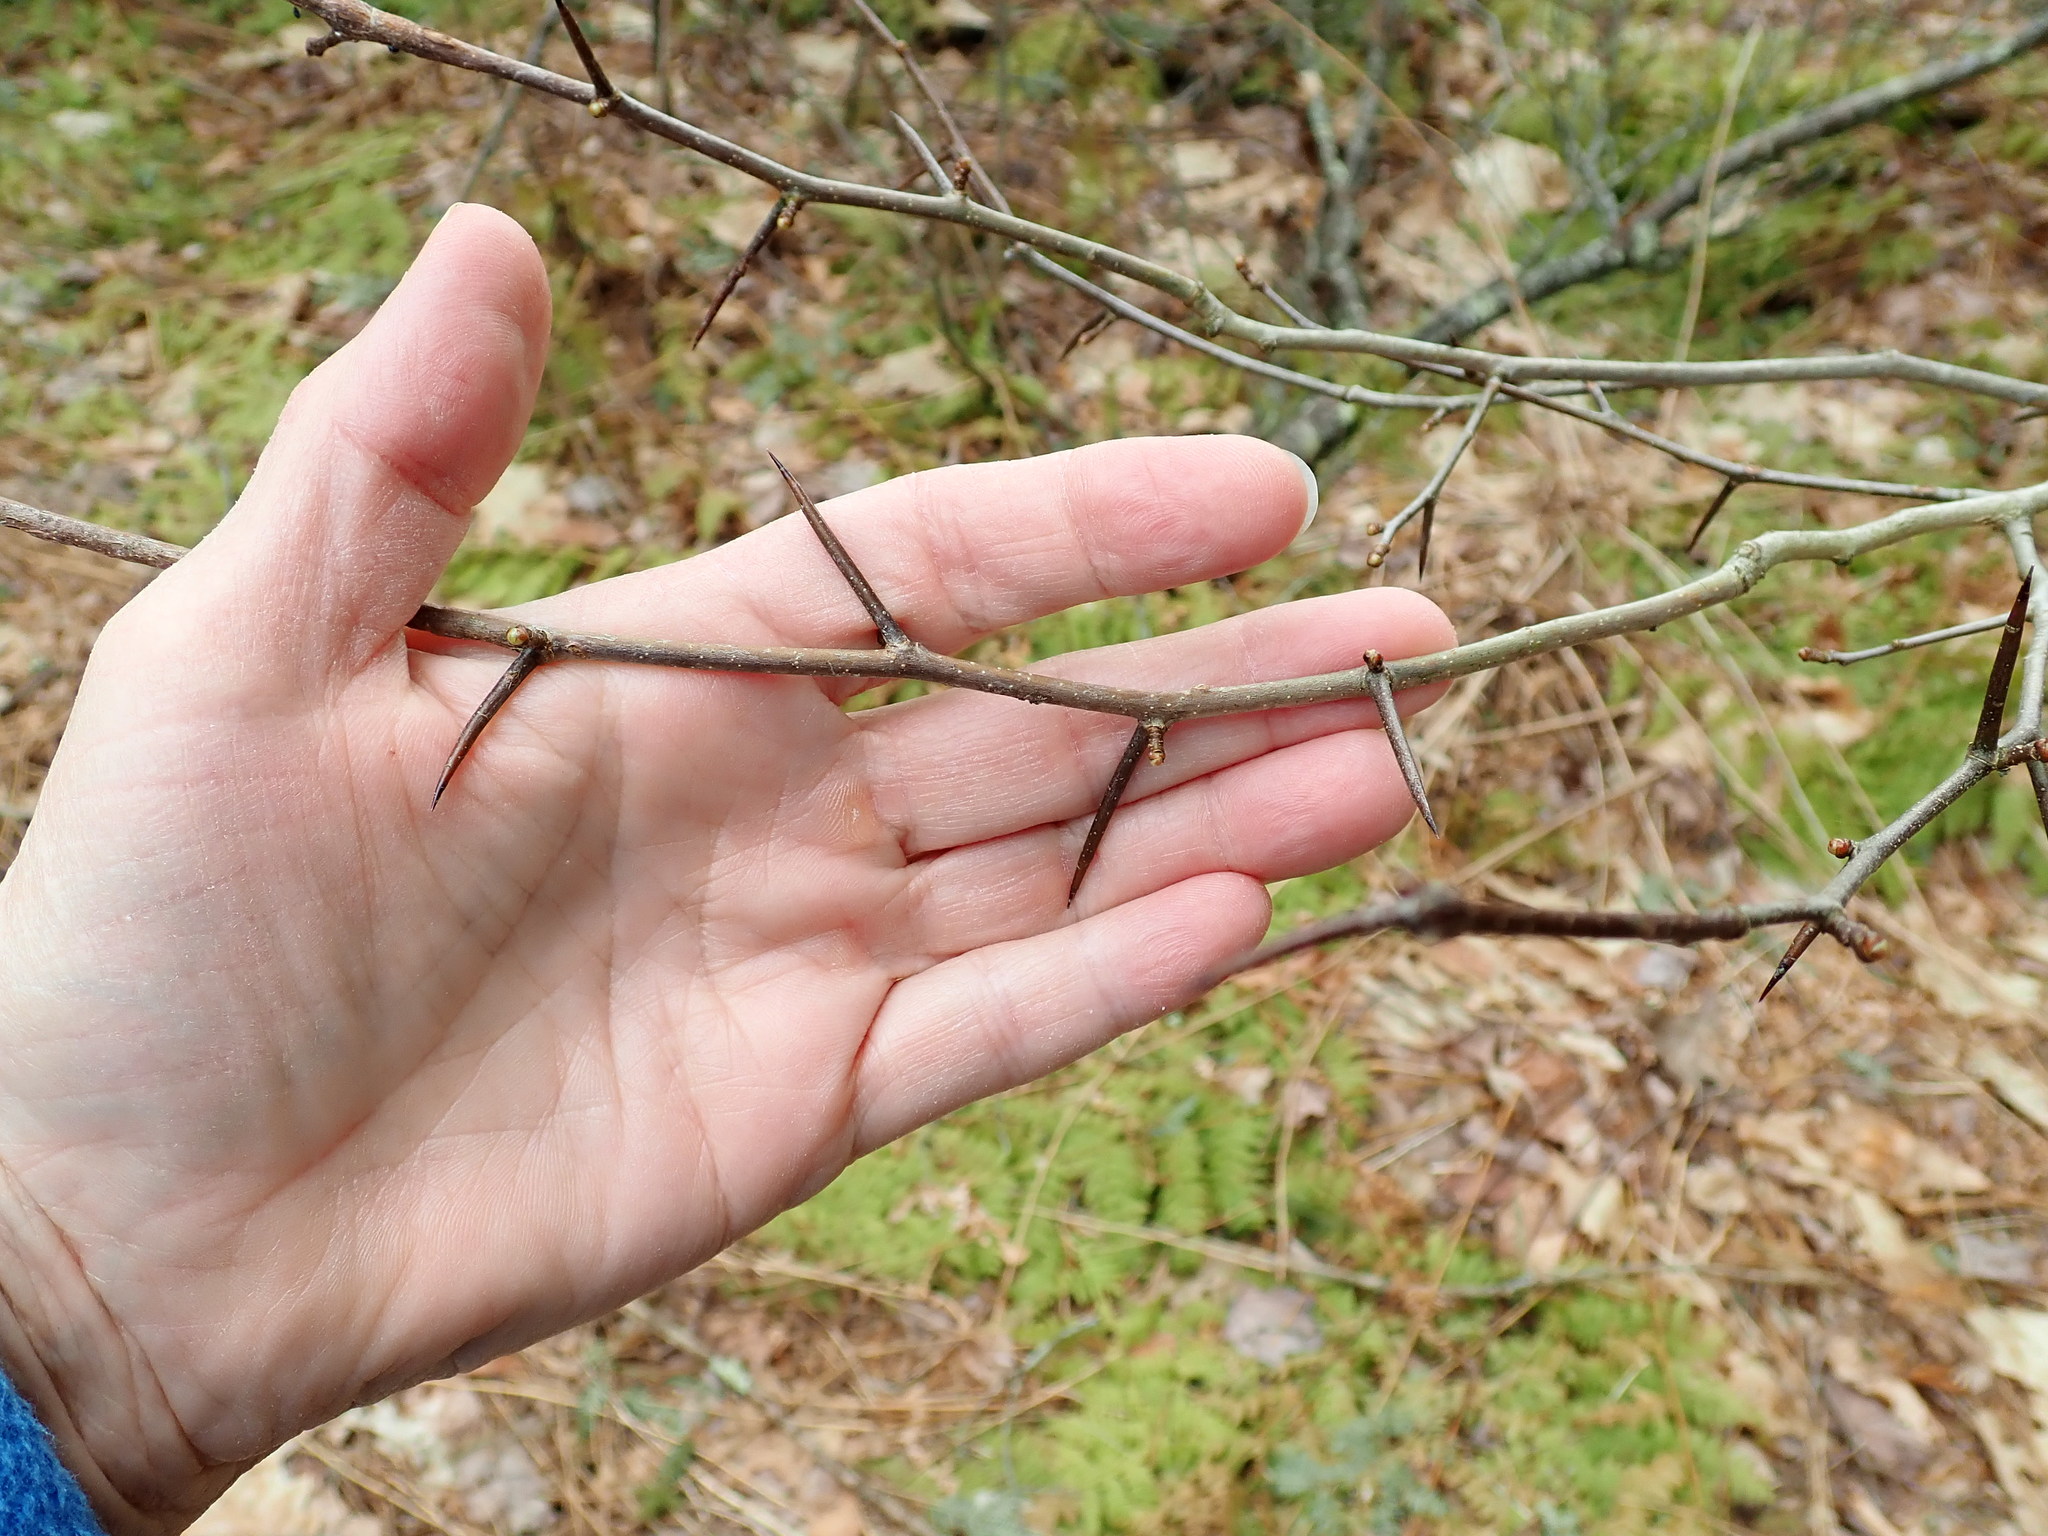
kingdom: Plantae
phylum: Tracheophyta
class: Magnoliopsida
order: Rosales
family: Rosaceae
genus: Crataegus
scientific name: Crataegus
